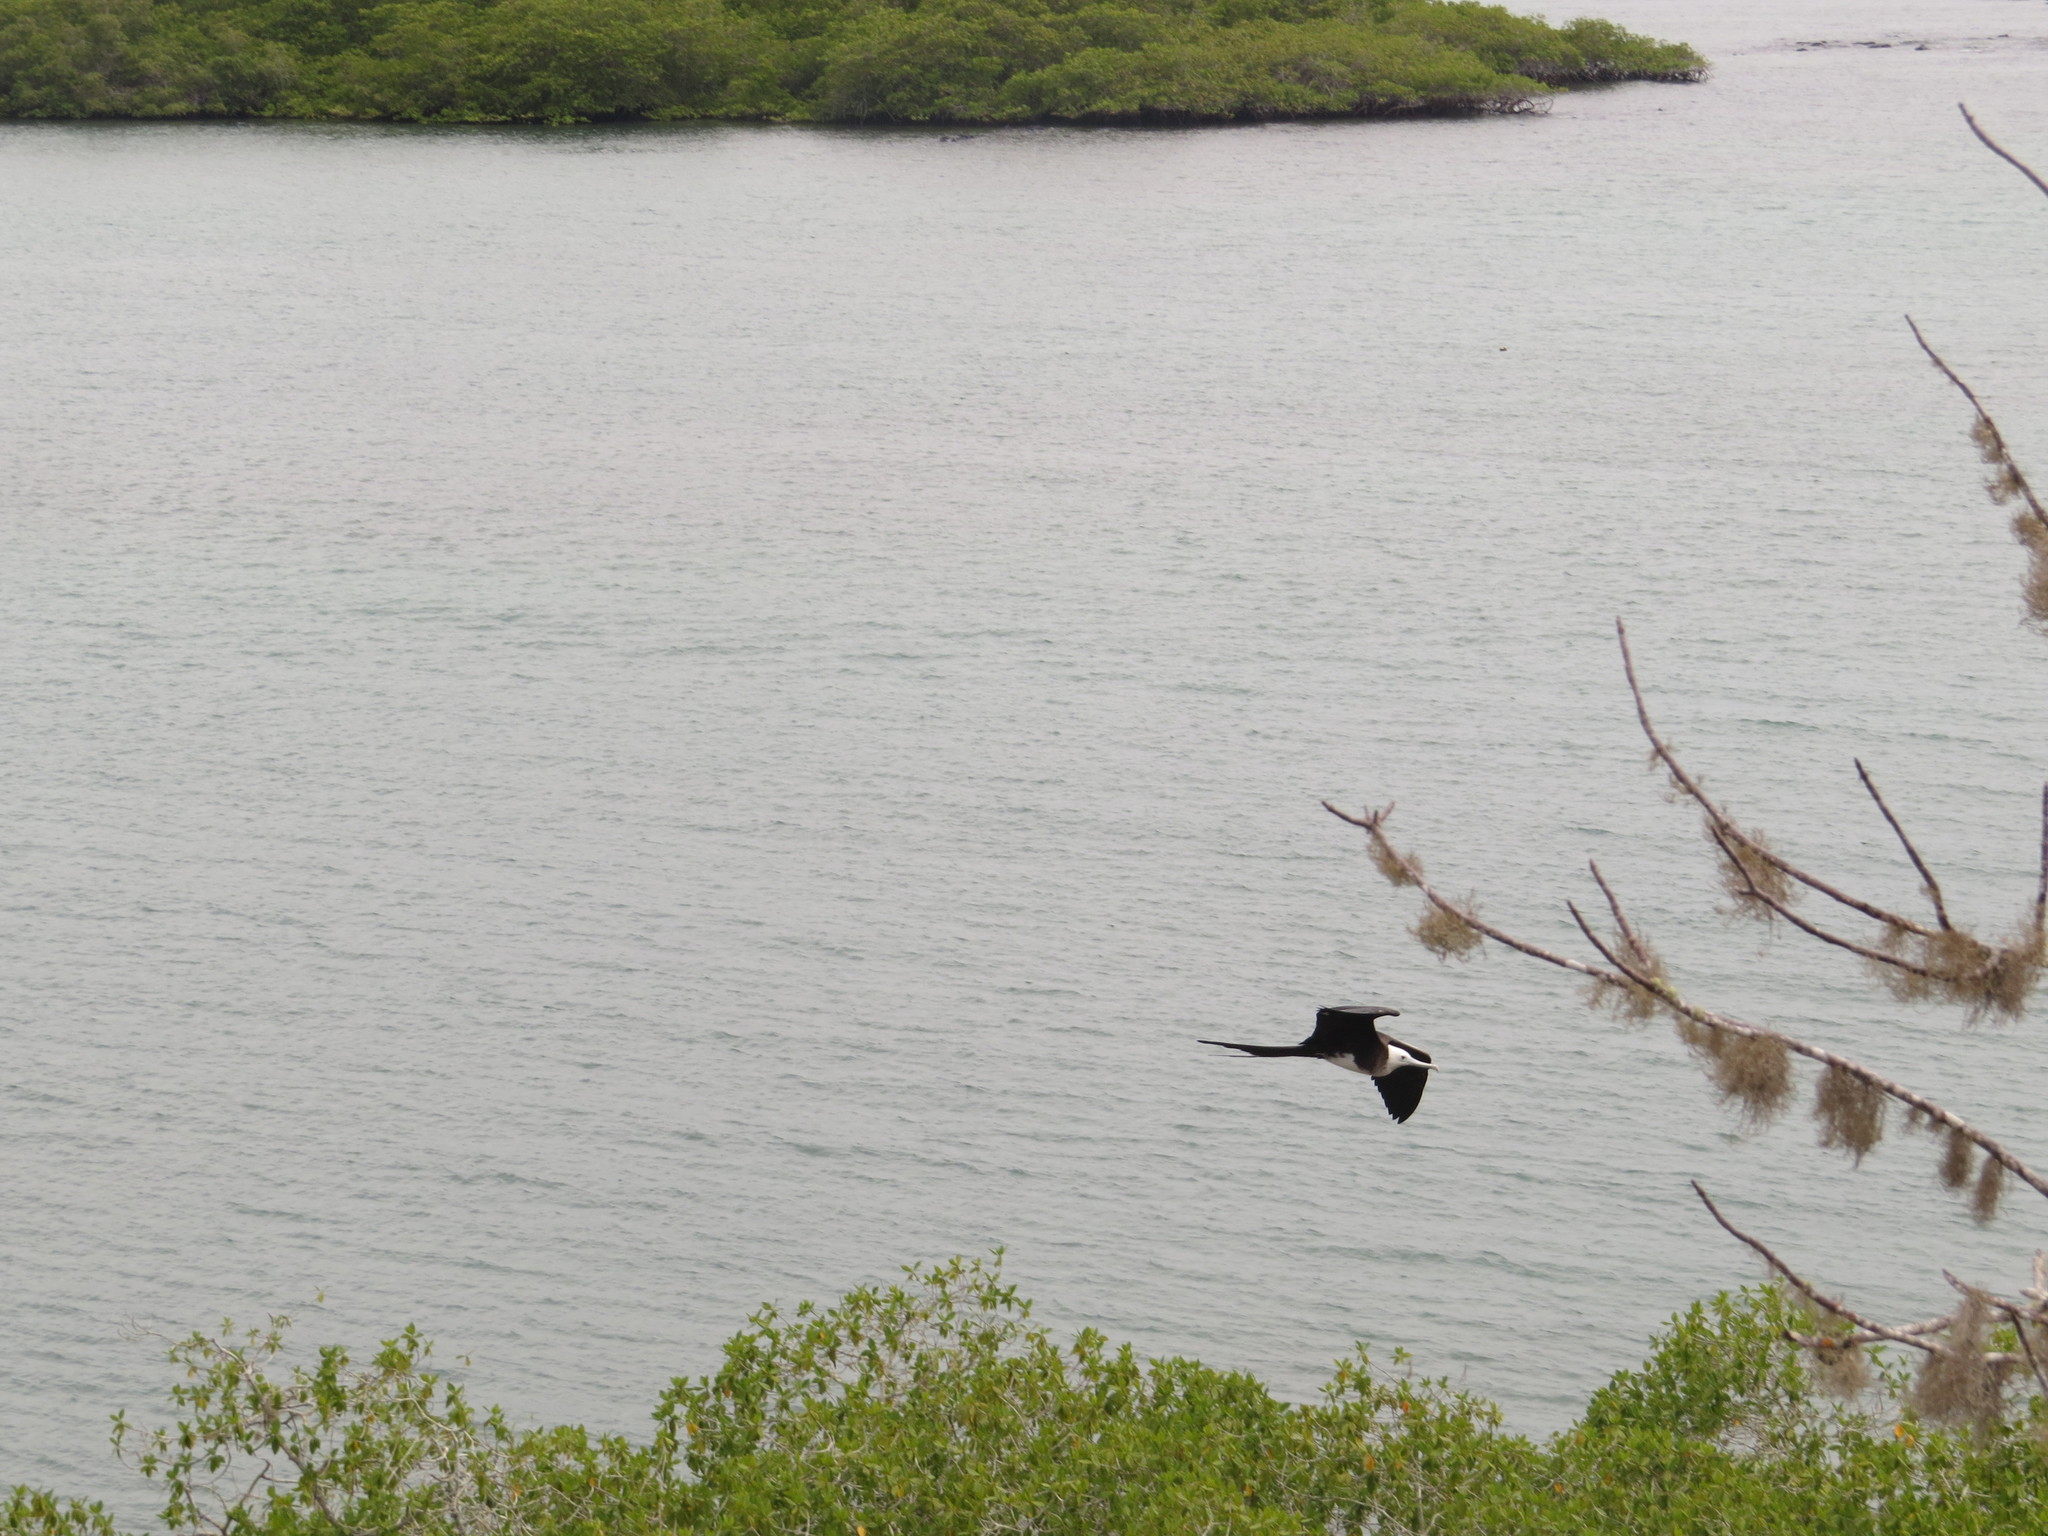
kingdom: Animalia
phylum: Chordata
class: Aves
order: Suliformes
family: Fregatidae
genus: Fregata
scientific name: Fregata
